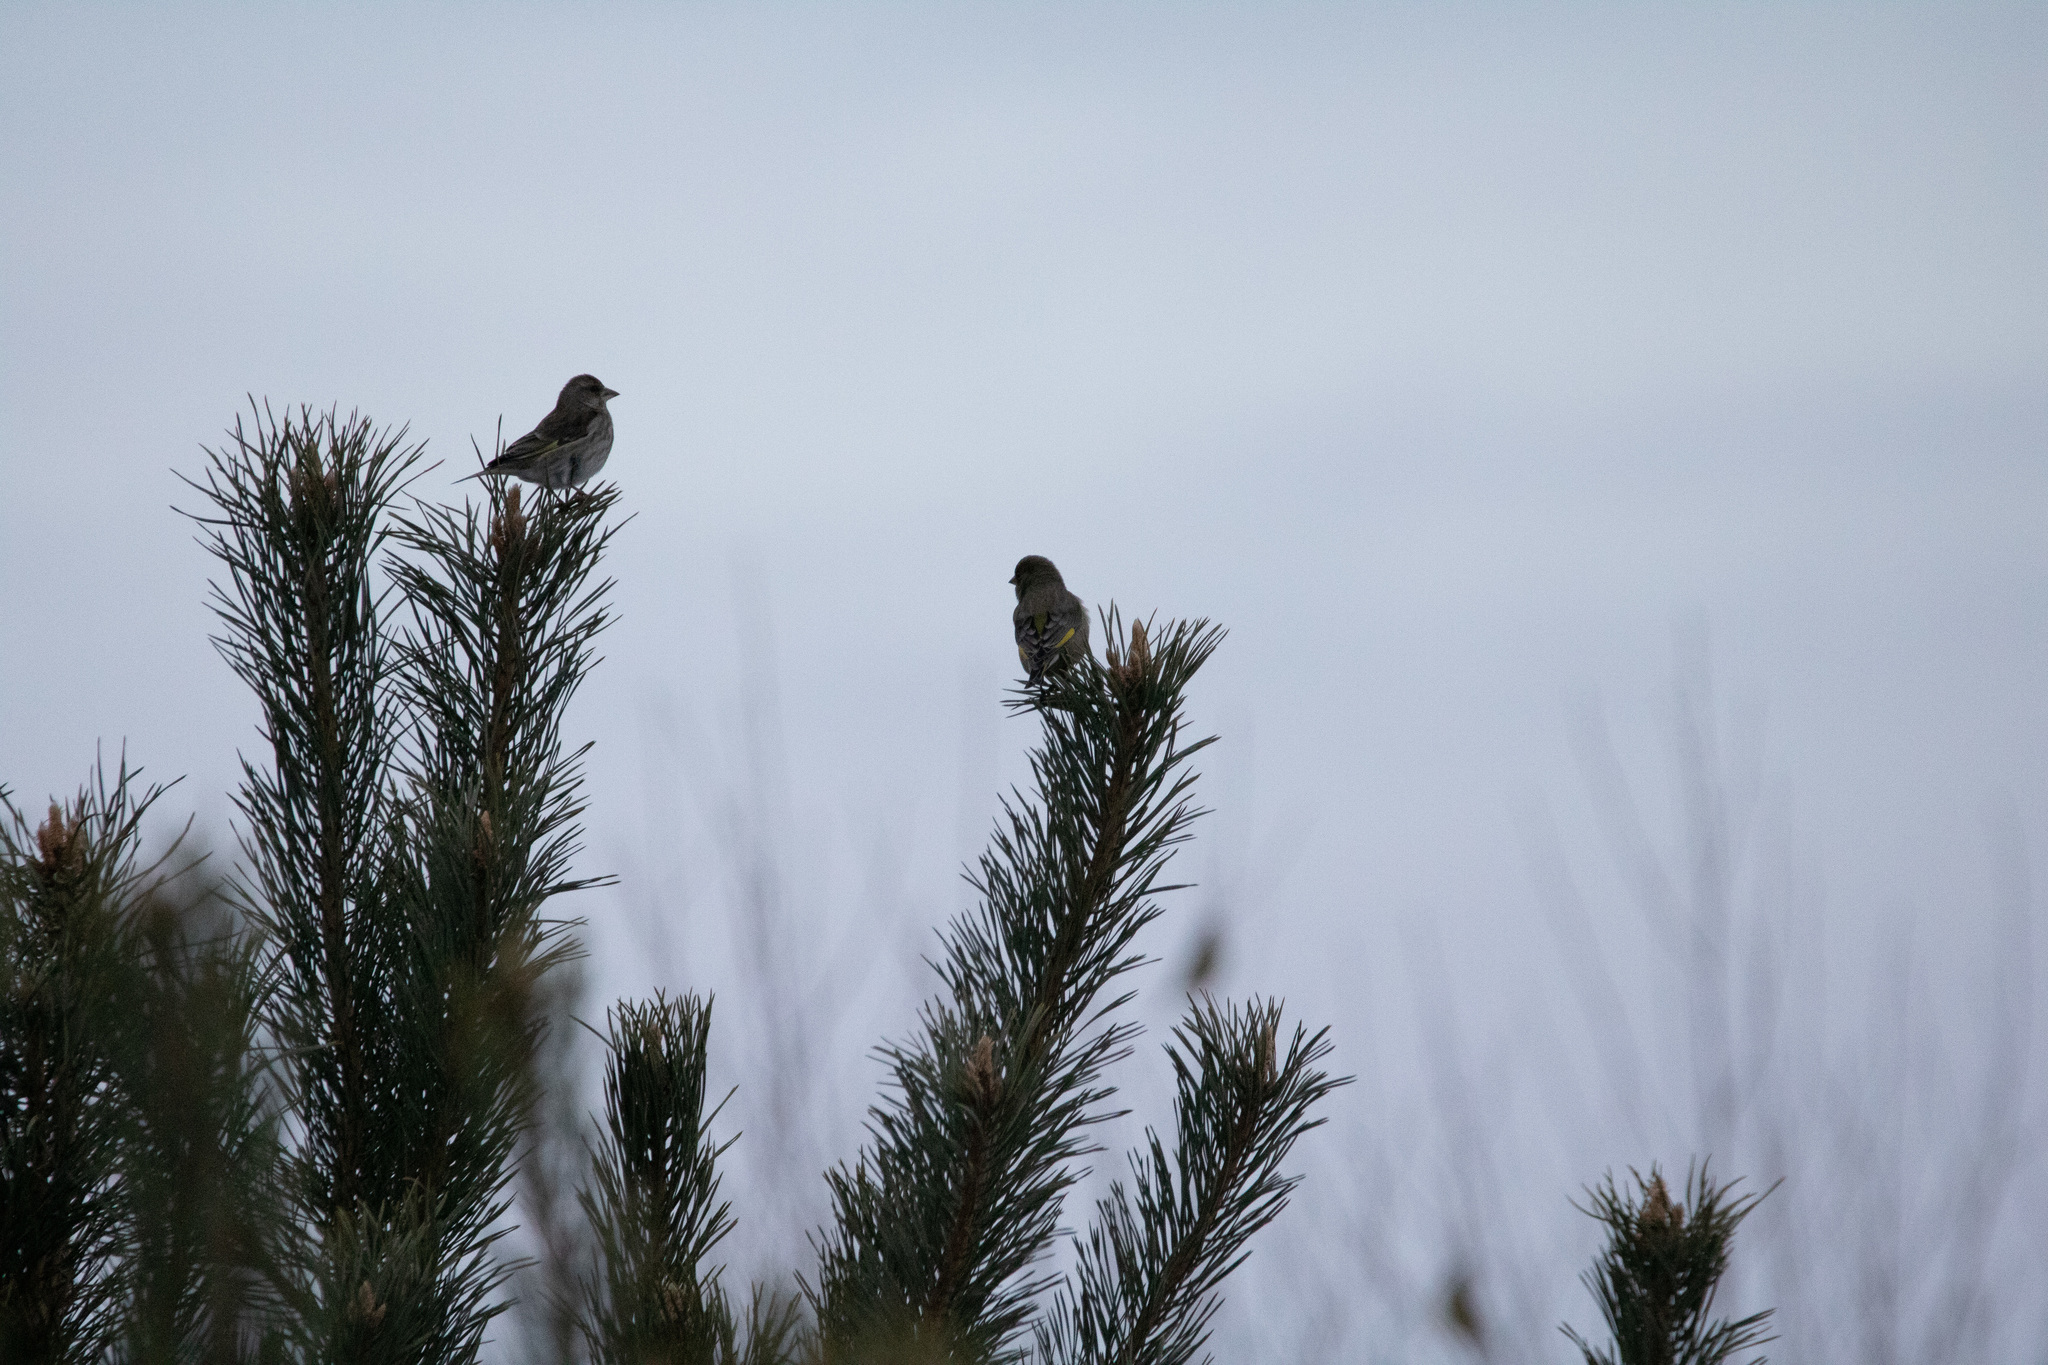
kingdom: Plantae
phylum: Tracheophyta
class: Liliopsida
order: Poales
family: Poaceae
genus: Chloris
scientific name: Chloris chloris
